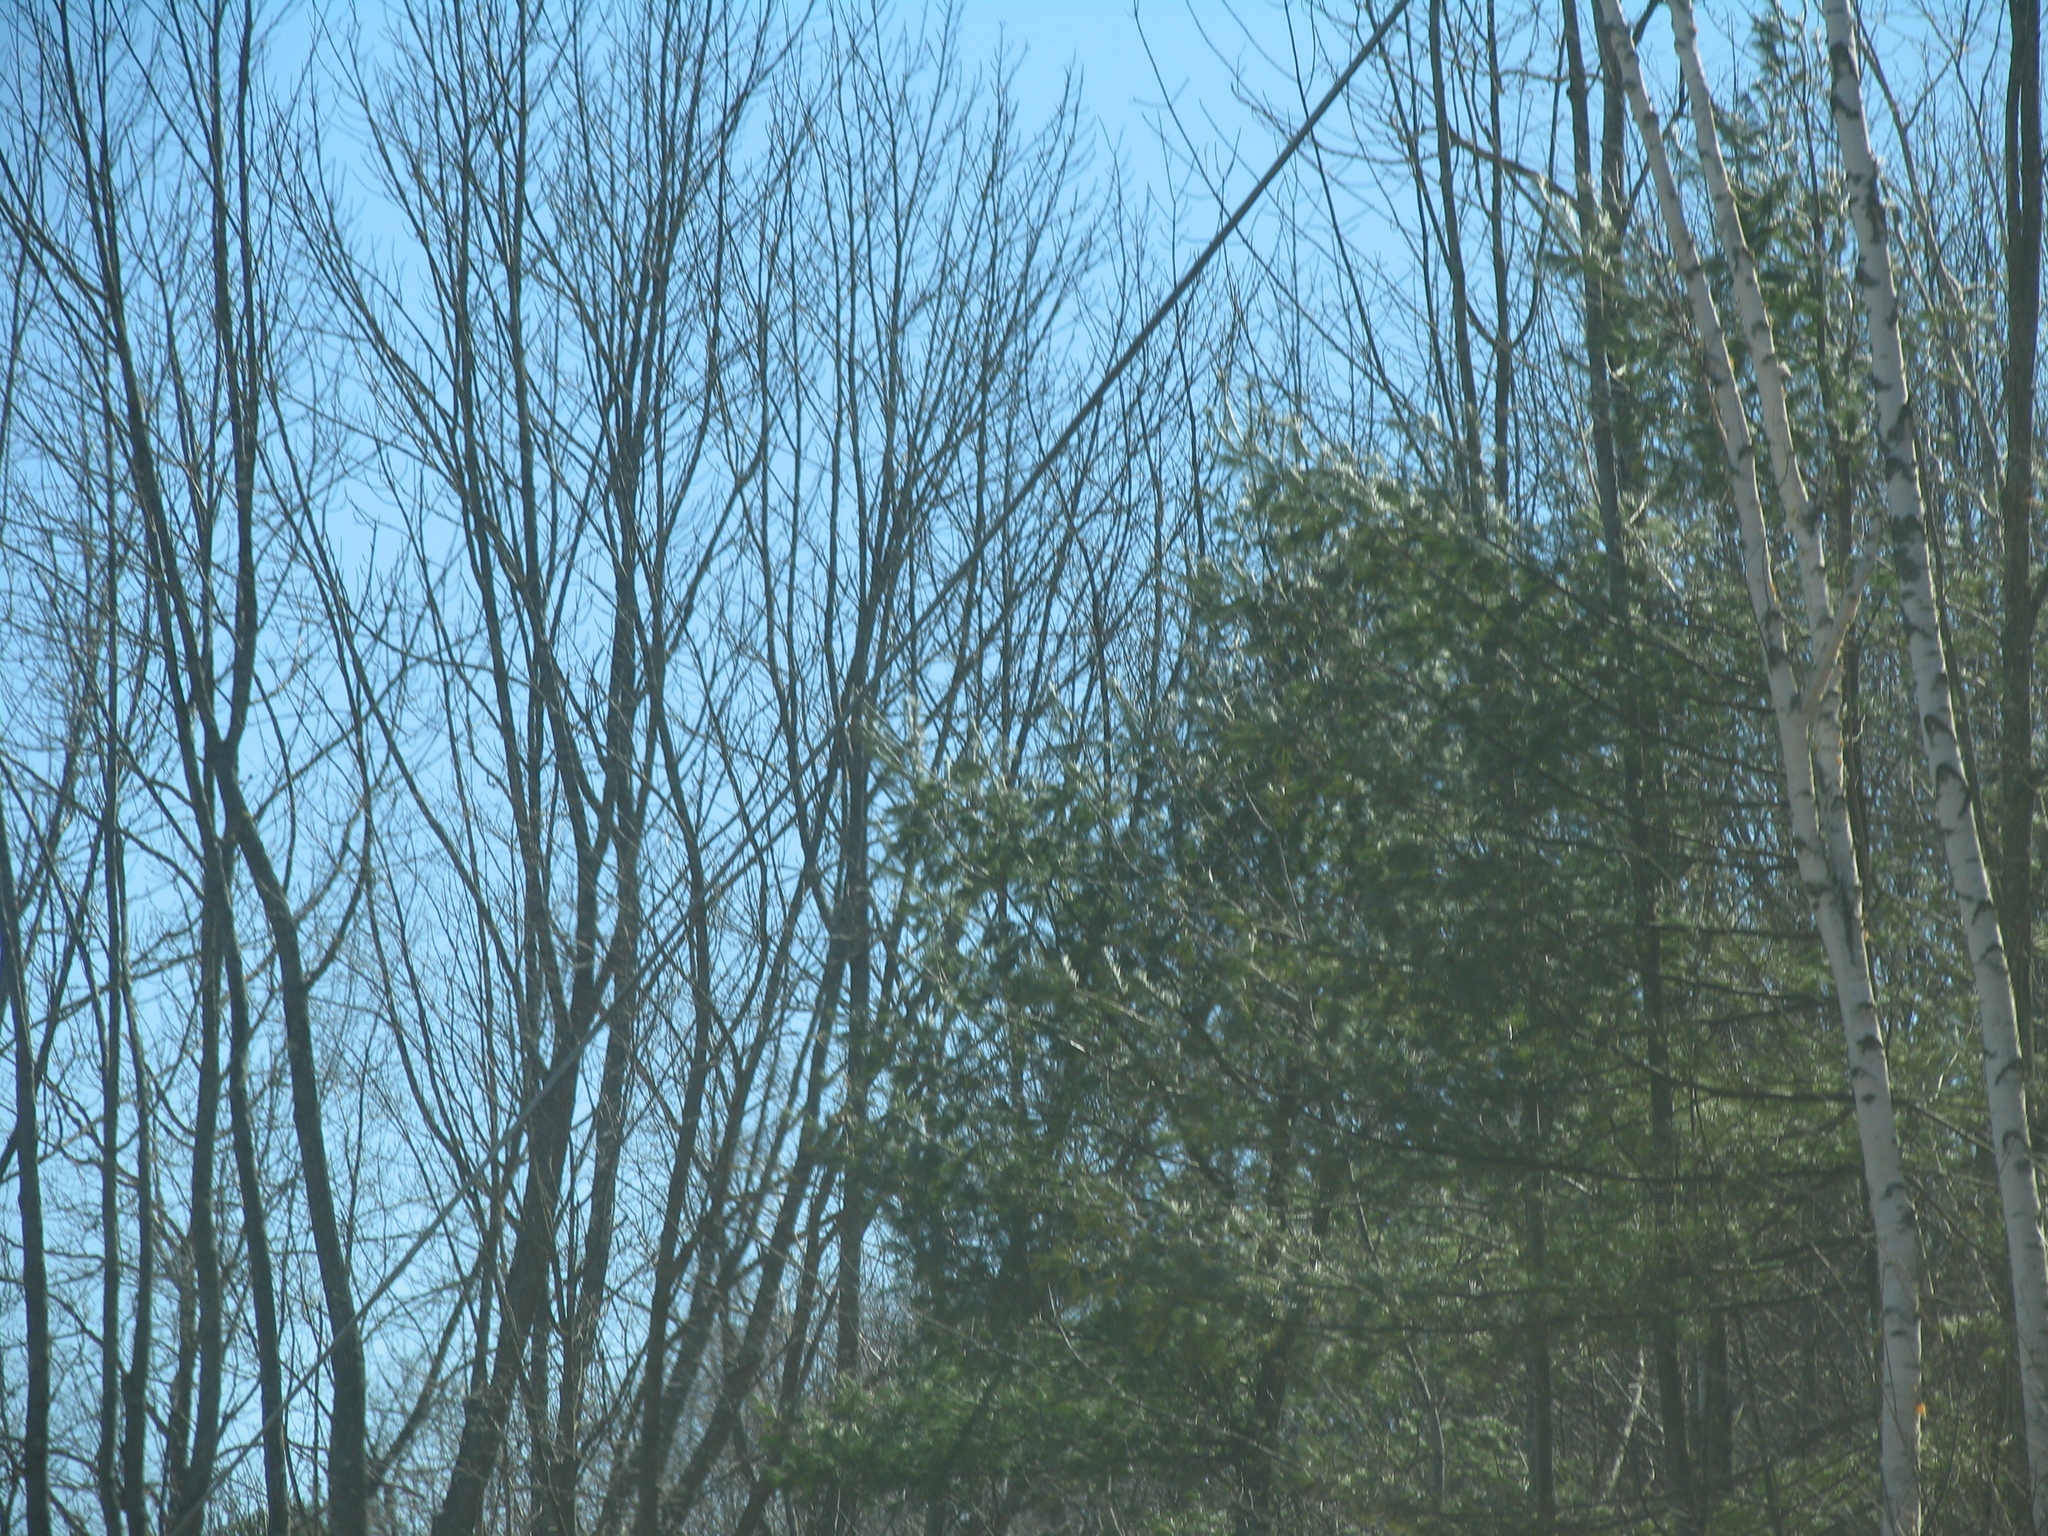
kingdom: Plantae
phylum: Tracheophyta
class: Pinopsida
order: Pinales
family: Pinaceae
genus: Pinus
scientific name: Pinus strobus
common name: Weymouth pine
